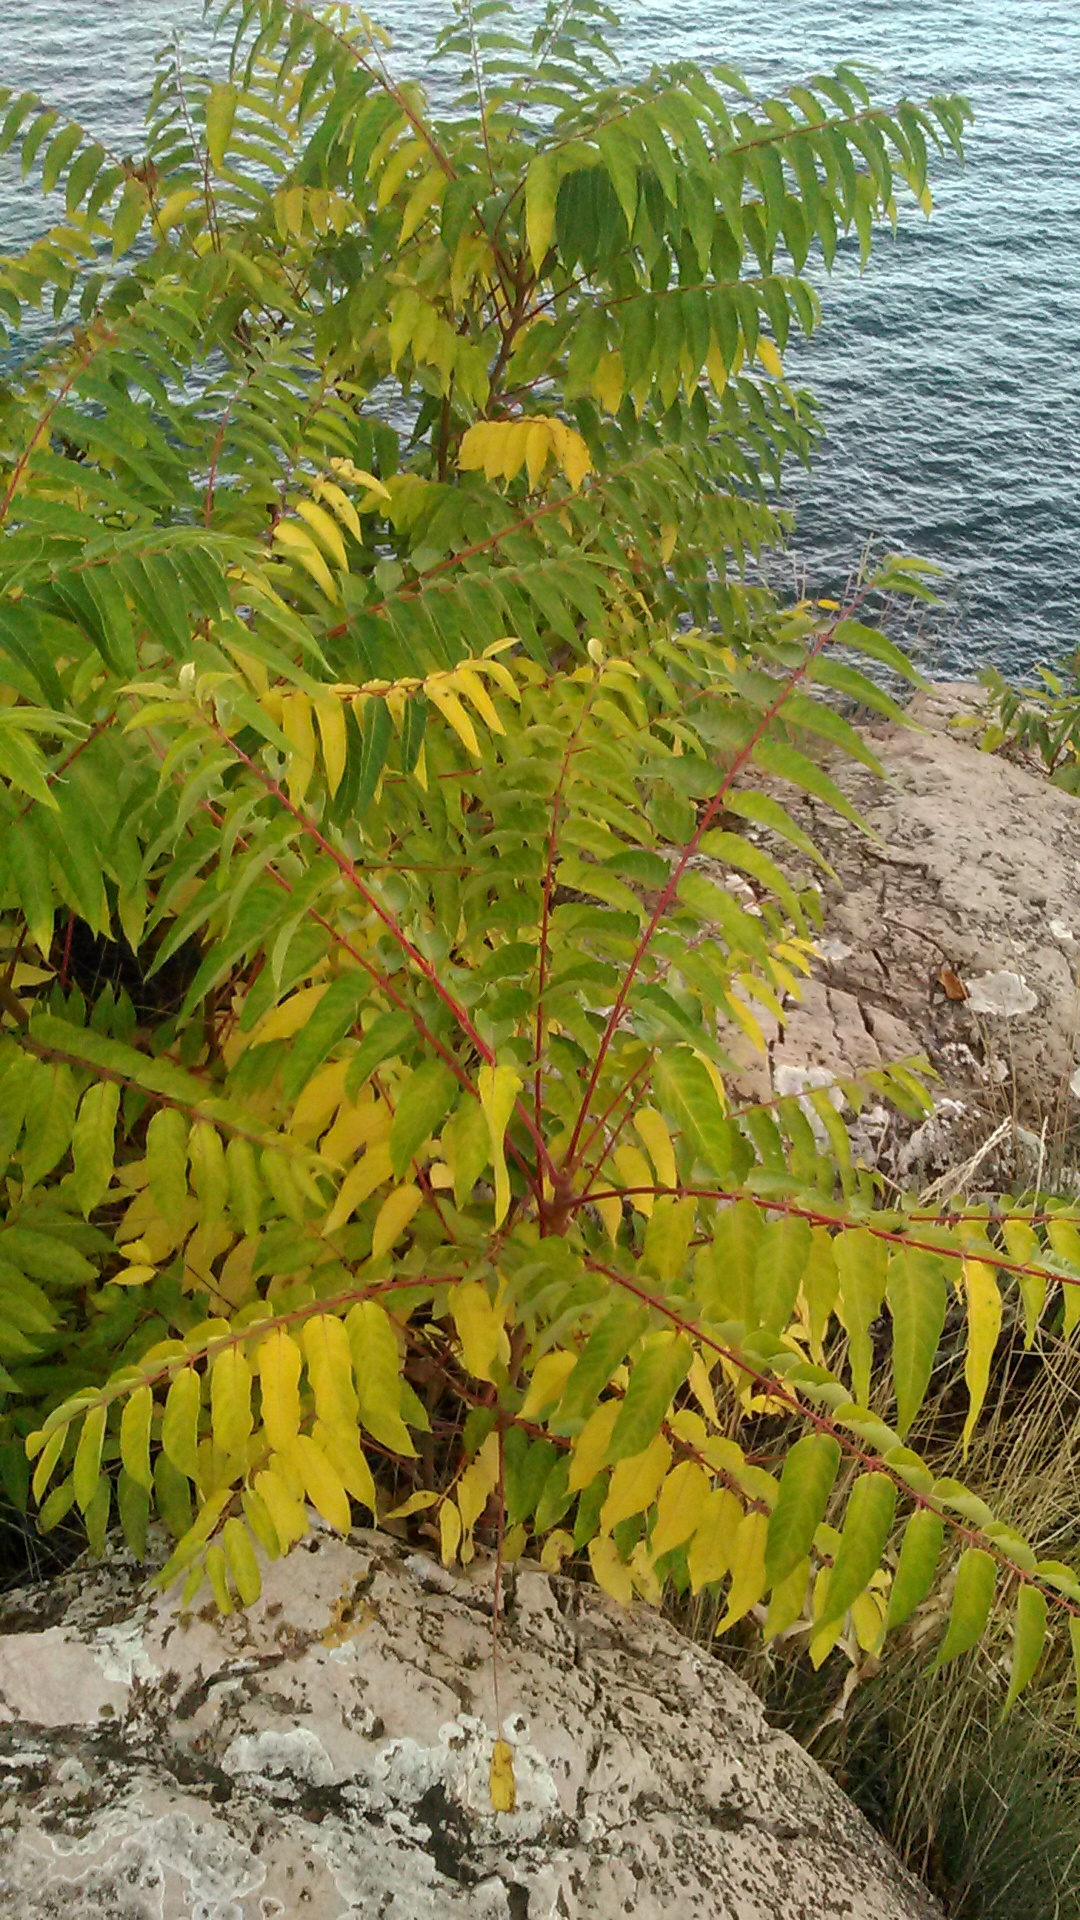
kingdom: Plantae
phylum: Tracheophyta
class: Magnoliopsida
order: Sapindales
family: Simaroubaceae
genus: Ailanthus
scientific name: Ailanthus altissima
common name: Tree-of-heaven
